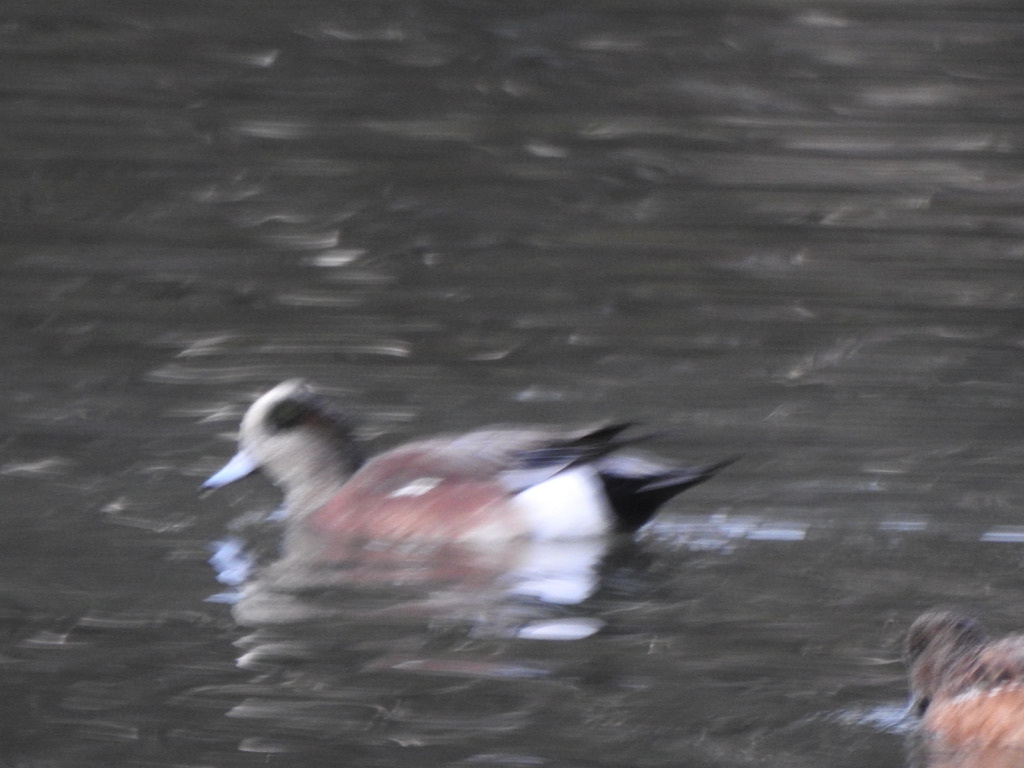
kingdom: Animalia
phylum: Chordata
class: Aves
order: Anseriformes
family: Anatidae
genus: Mareca
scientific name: Mareca americana
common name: American wigeon
